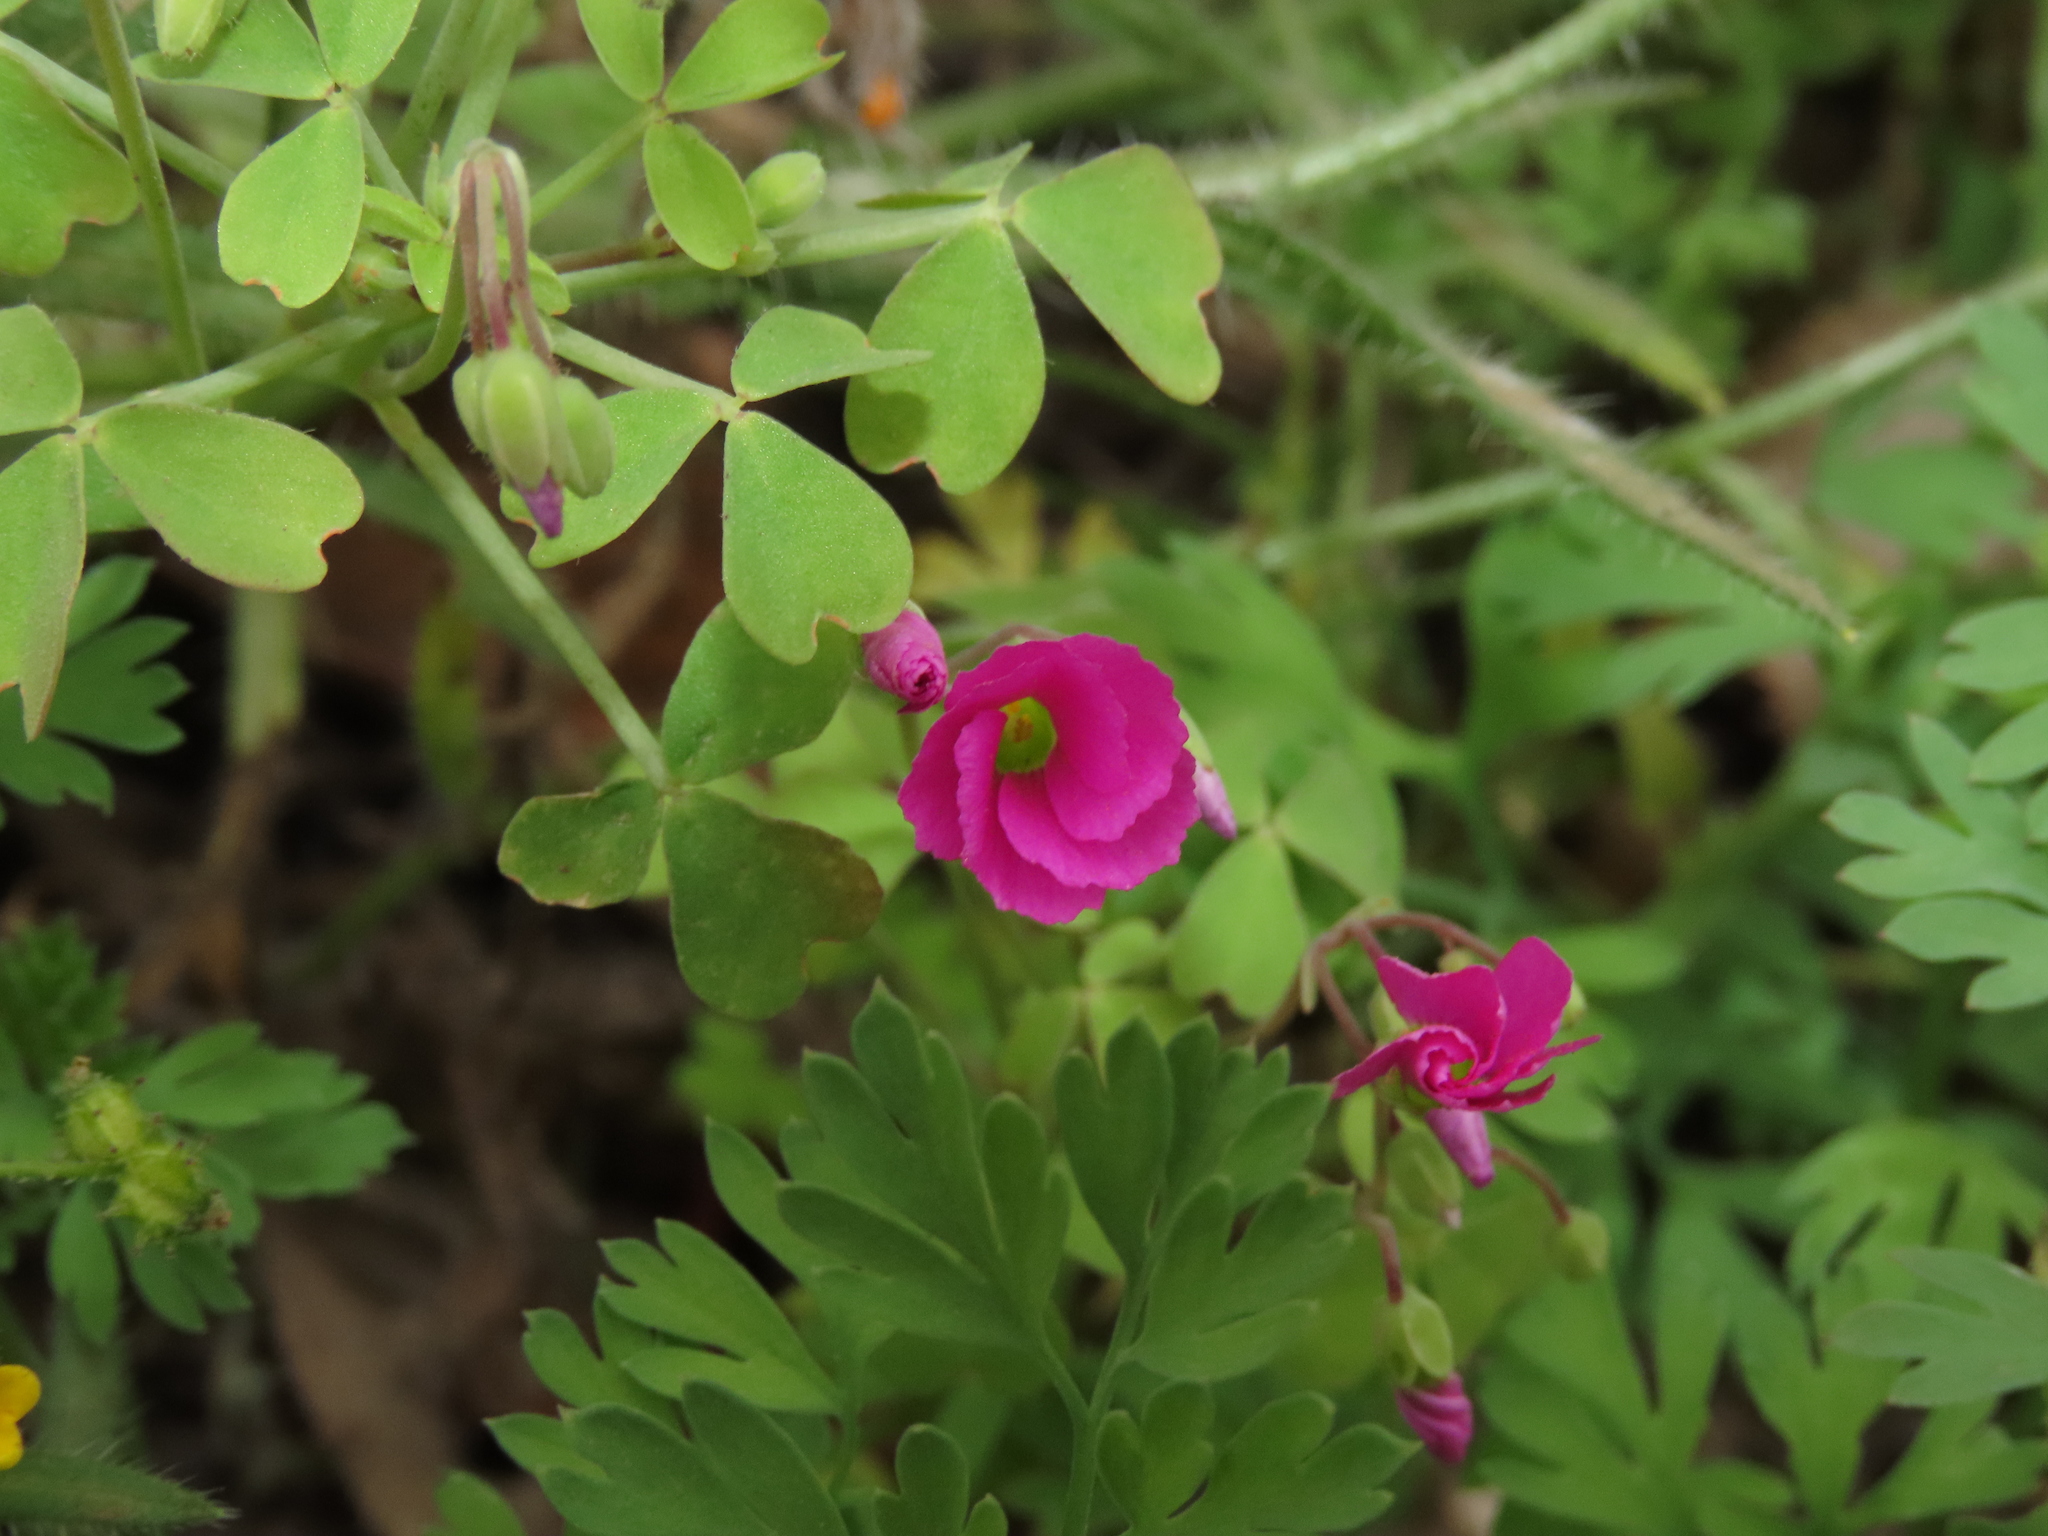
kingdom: Plantae
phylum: Tracheophyta
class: Magnoliopsida
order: Oxalidales
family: Oxalidaceae
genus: Oxalis
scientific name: Oxalis rosea
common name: Annual pink-sorrel
